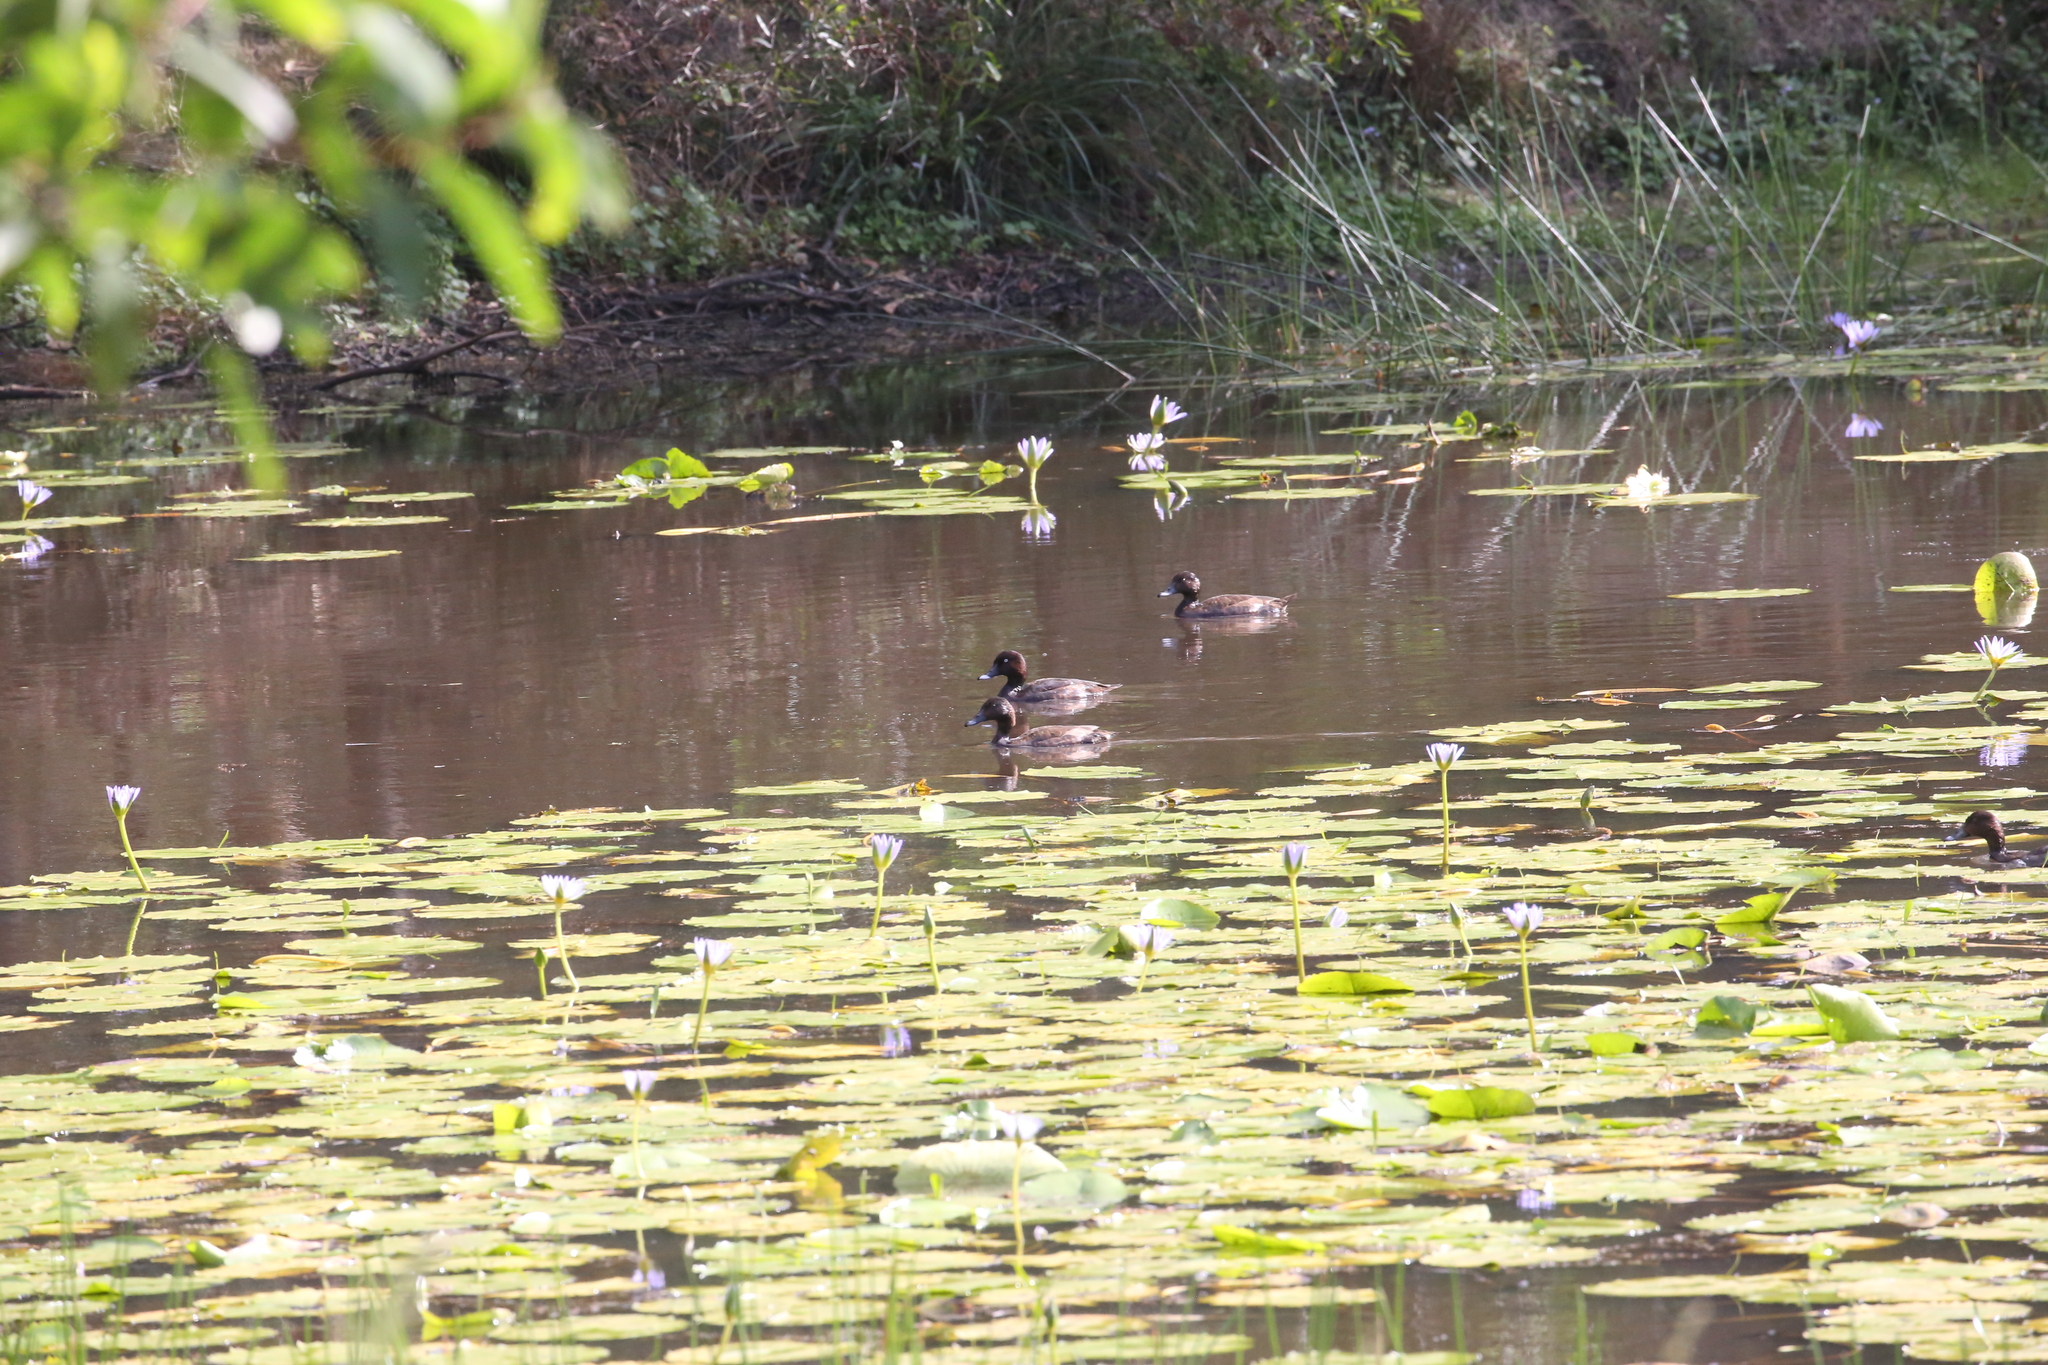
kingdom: Animalia
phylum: Chordata
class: Aves
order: Anseriformes
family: Anatidae
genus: Aythya
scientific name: Aythya australis
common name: Hardhead
